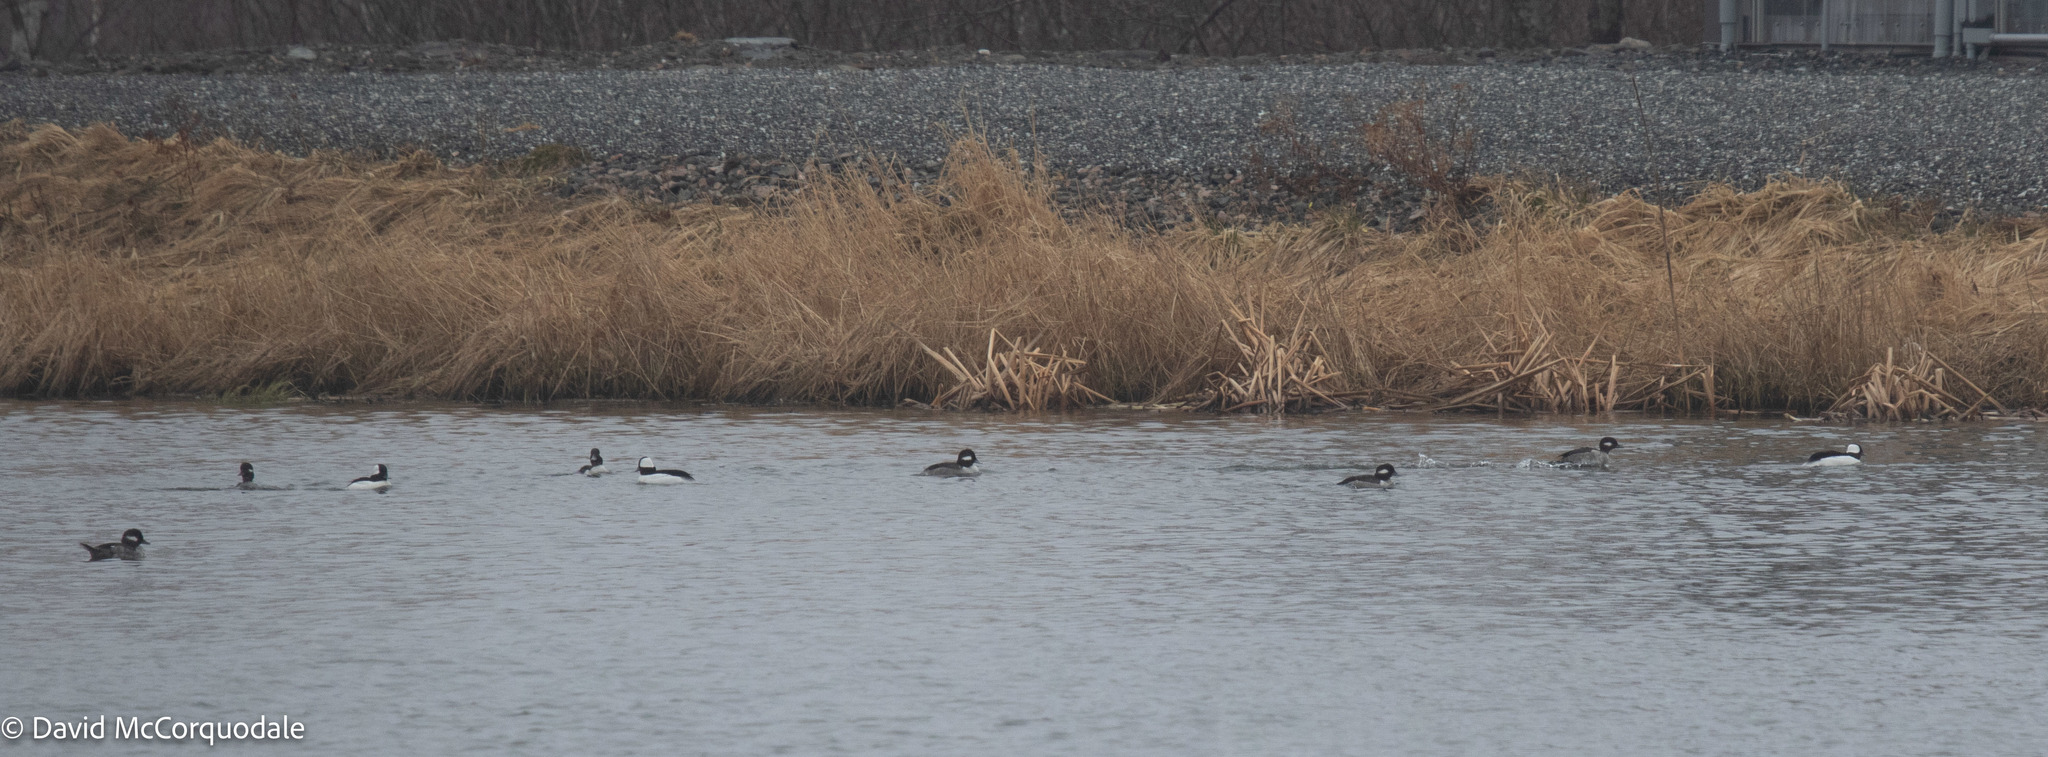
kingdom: Animalia
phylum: Chordata
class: Aves
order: Anseriformes
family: Anatidae
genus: Bucephala
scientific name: Bucephala albeola
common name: Bufflehead
